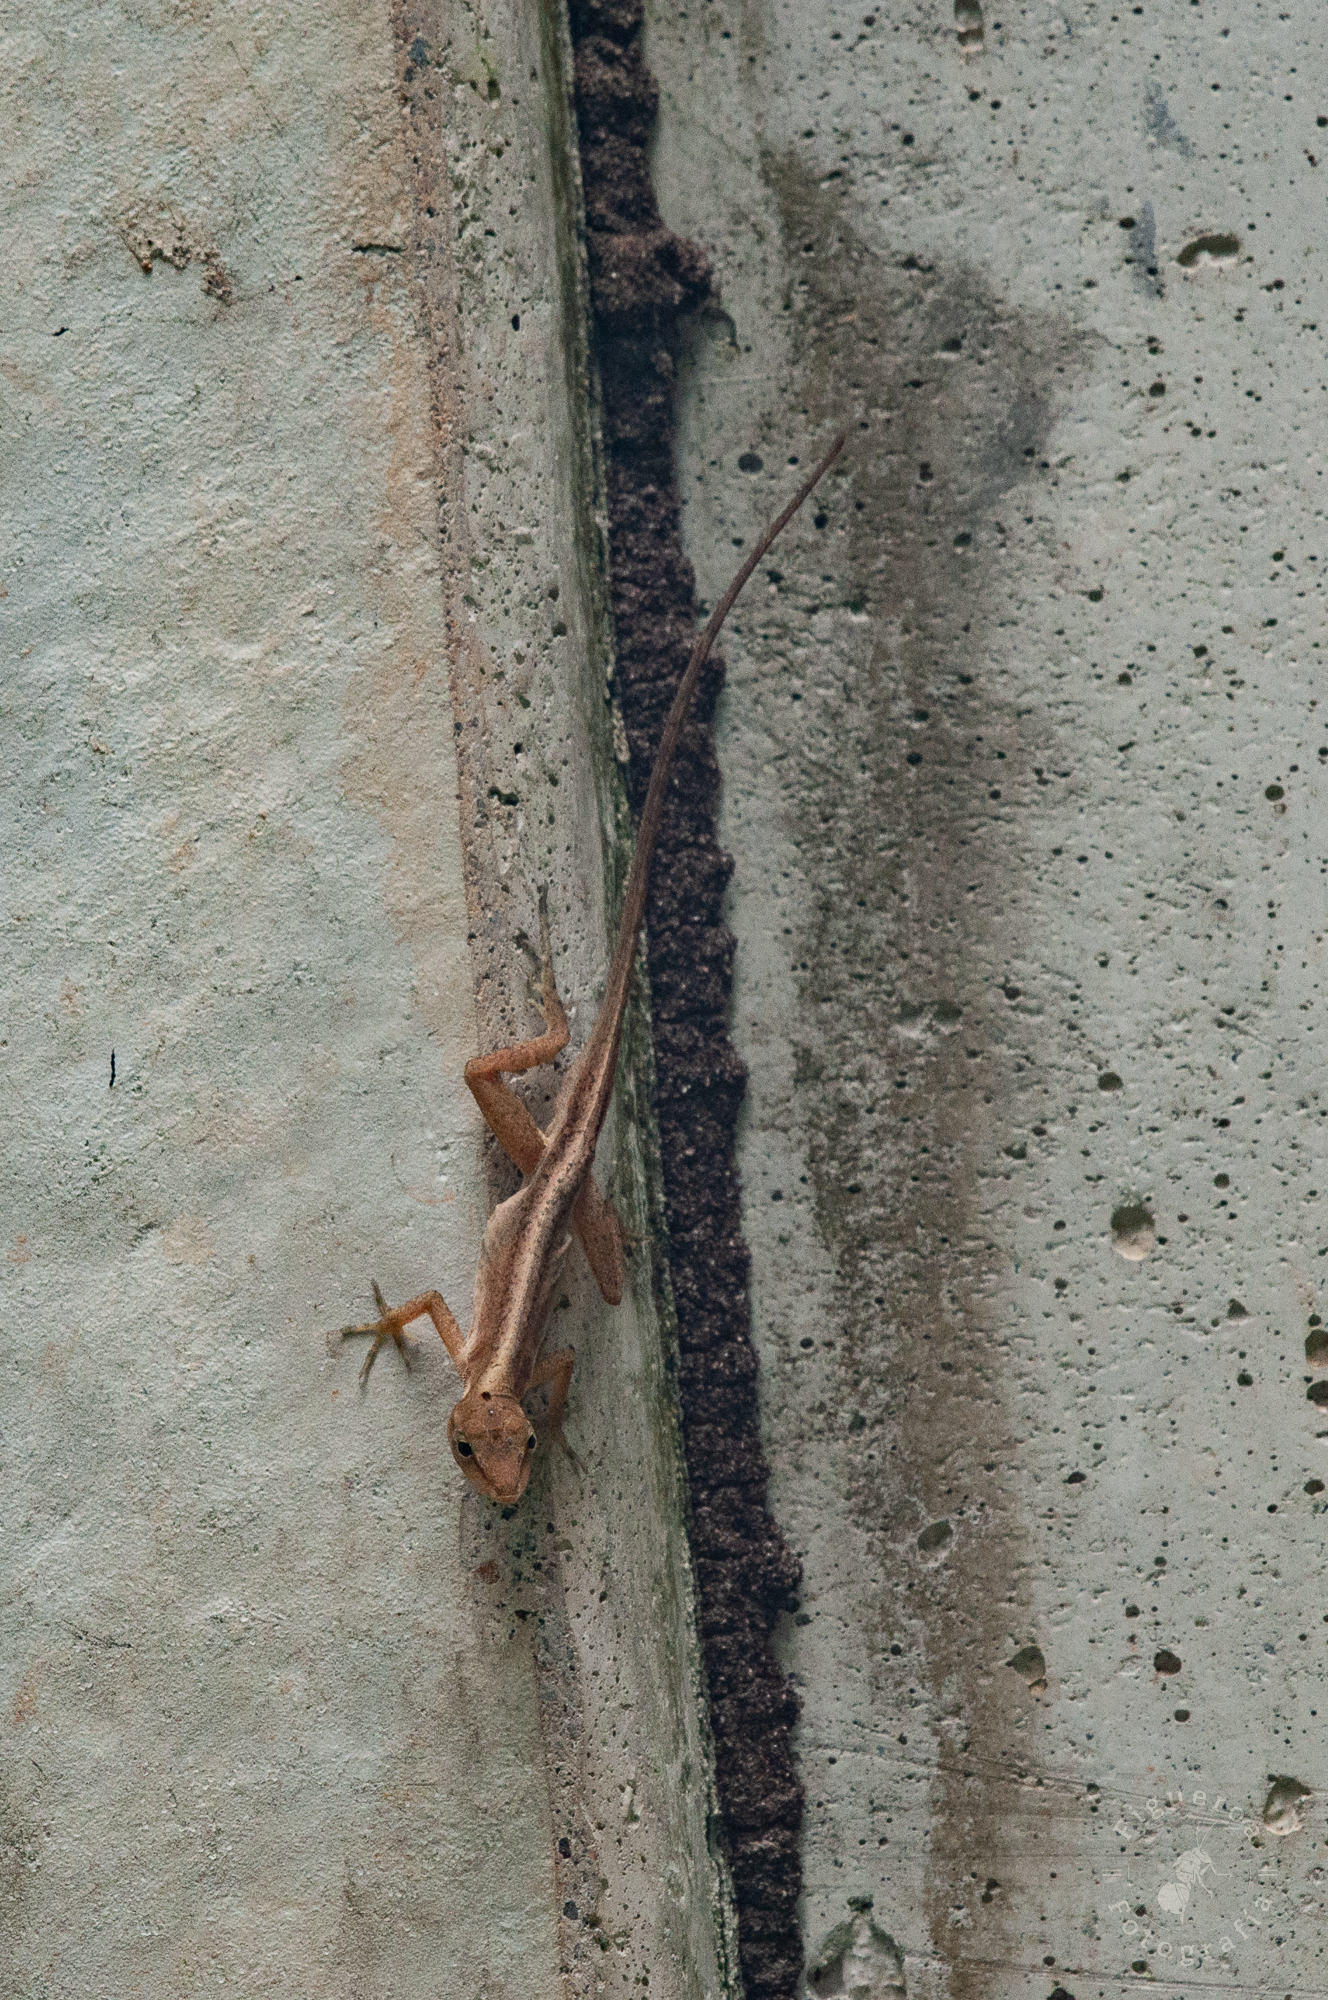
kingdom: Animalia
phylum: Chordata
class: Squamata
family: Dactyloidae
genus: Anolis
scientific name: Anolis cupreus
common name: Copper anole
